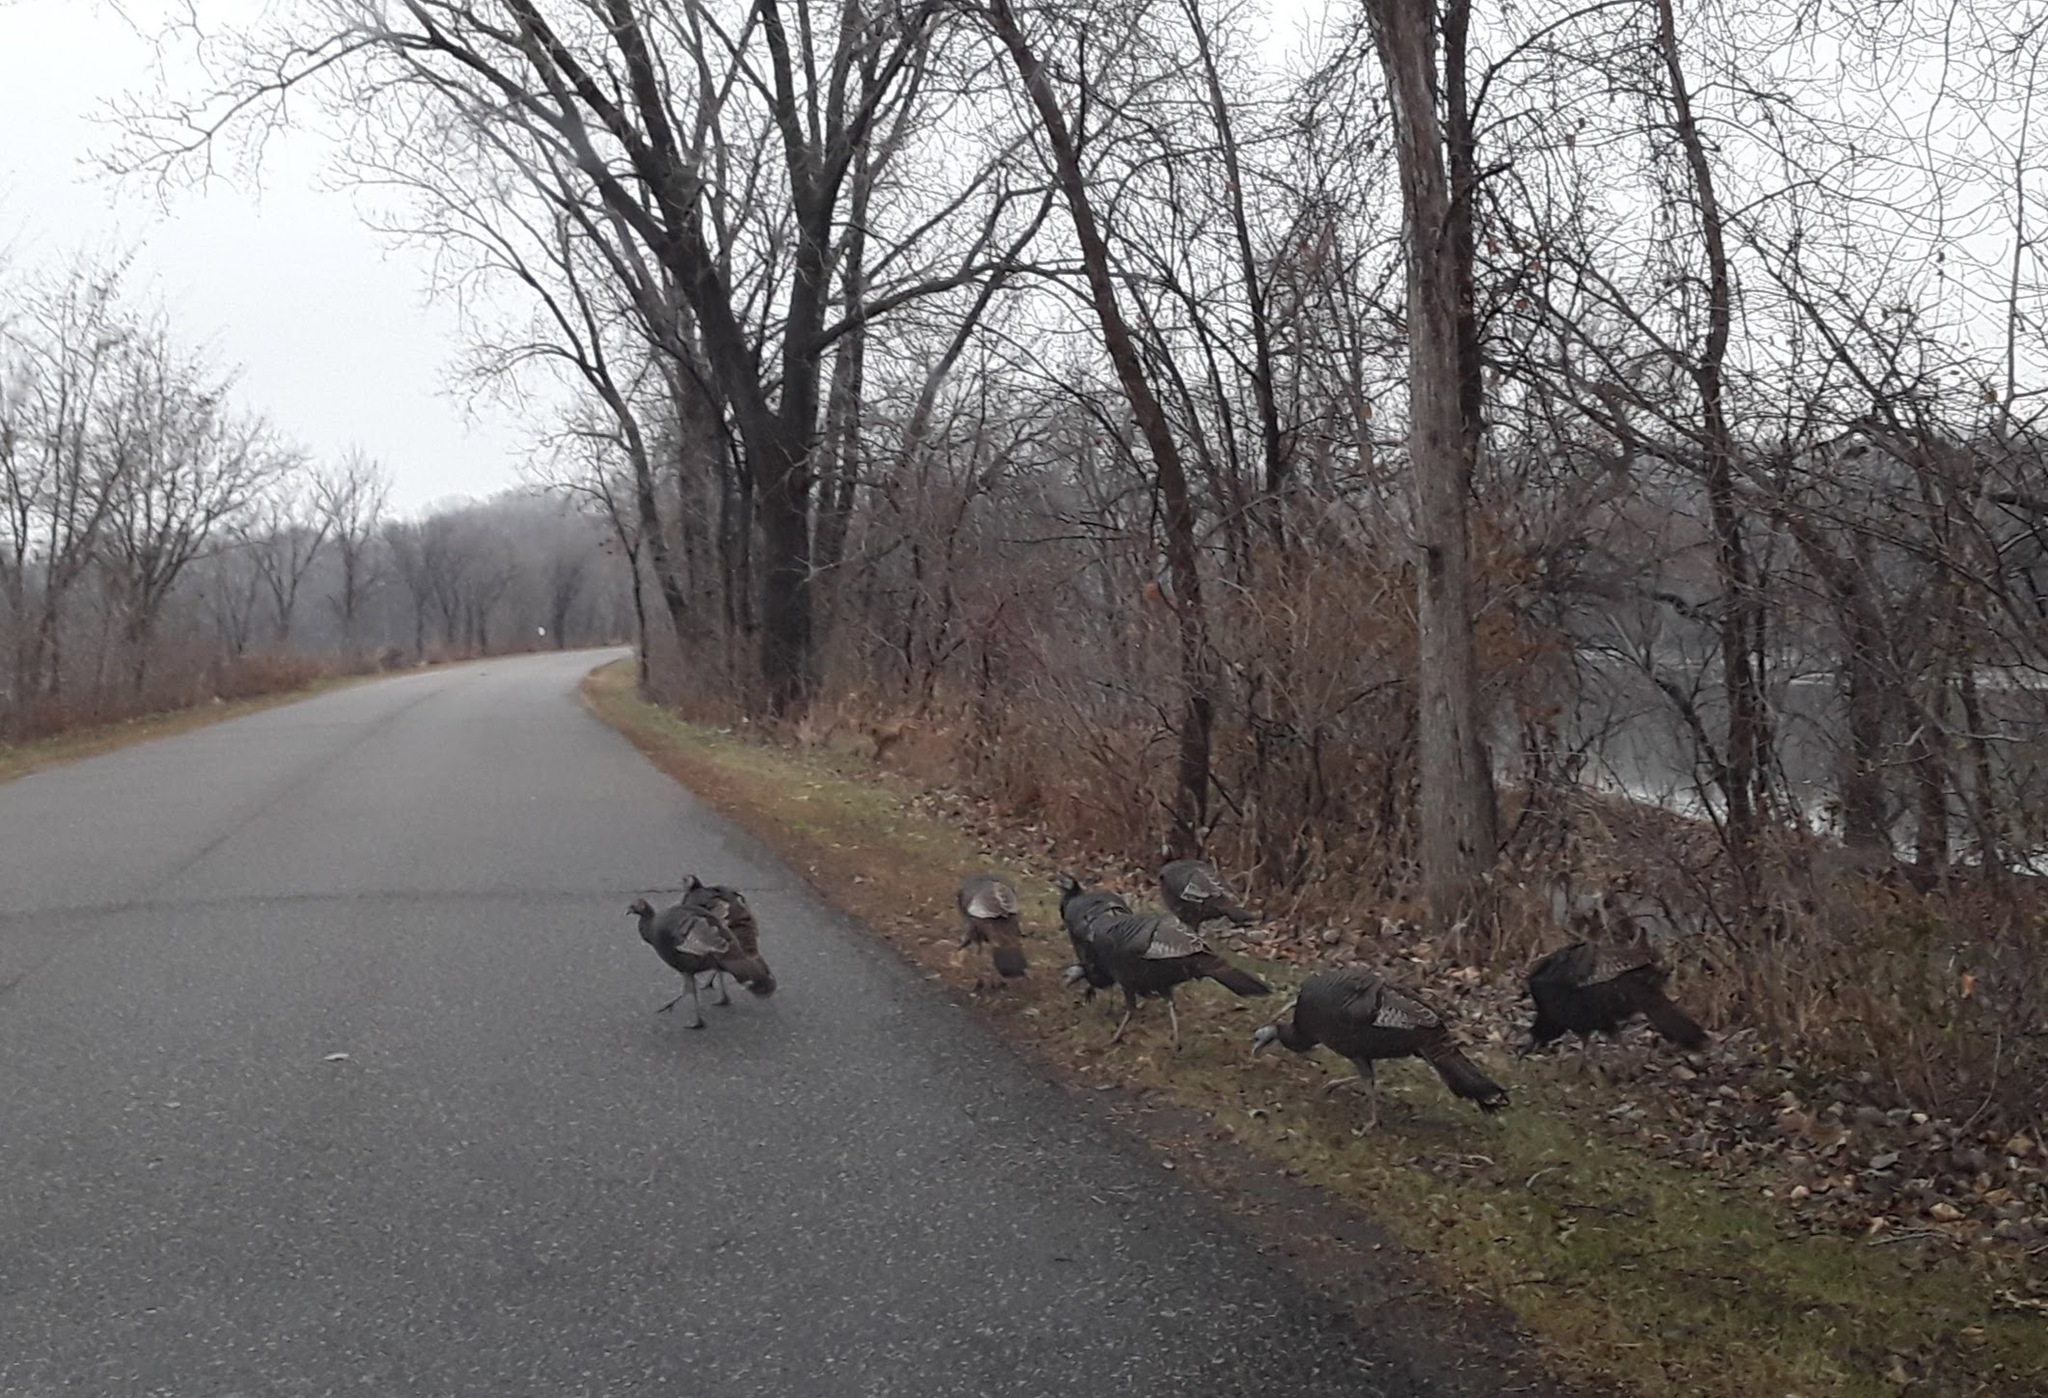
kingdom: Animalia
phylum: Chordata
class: Aves
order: Galliformes
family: Phasianidae
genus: Meleagris
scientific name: Meleagris gallopavo
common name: Wild turkey
